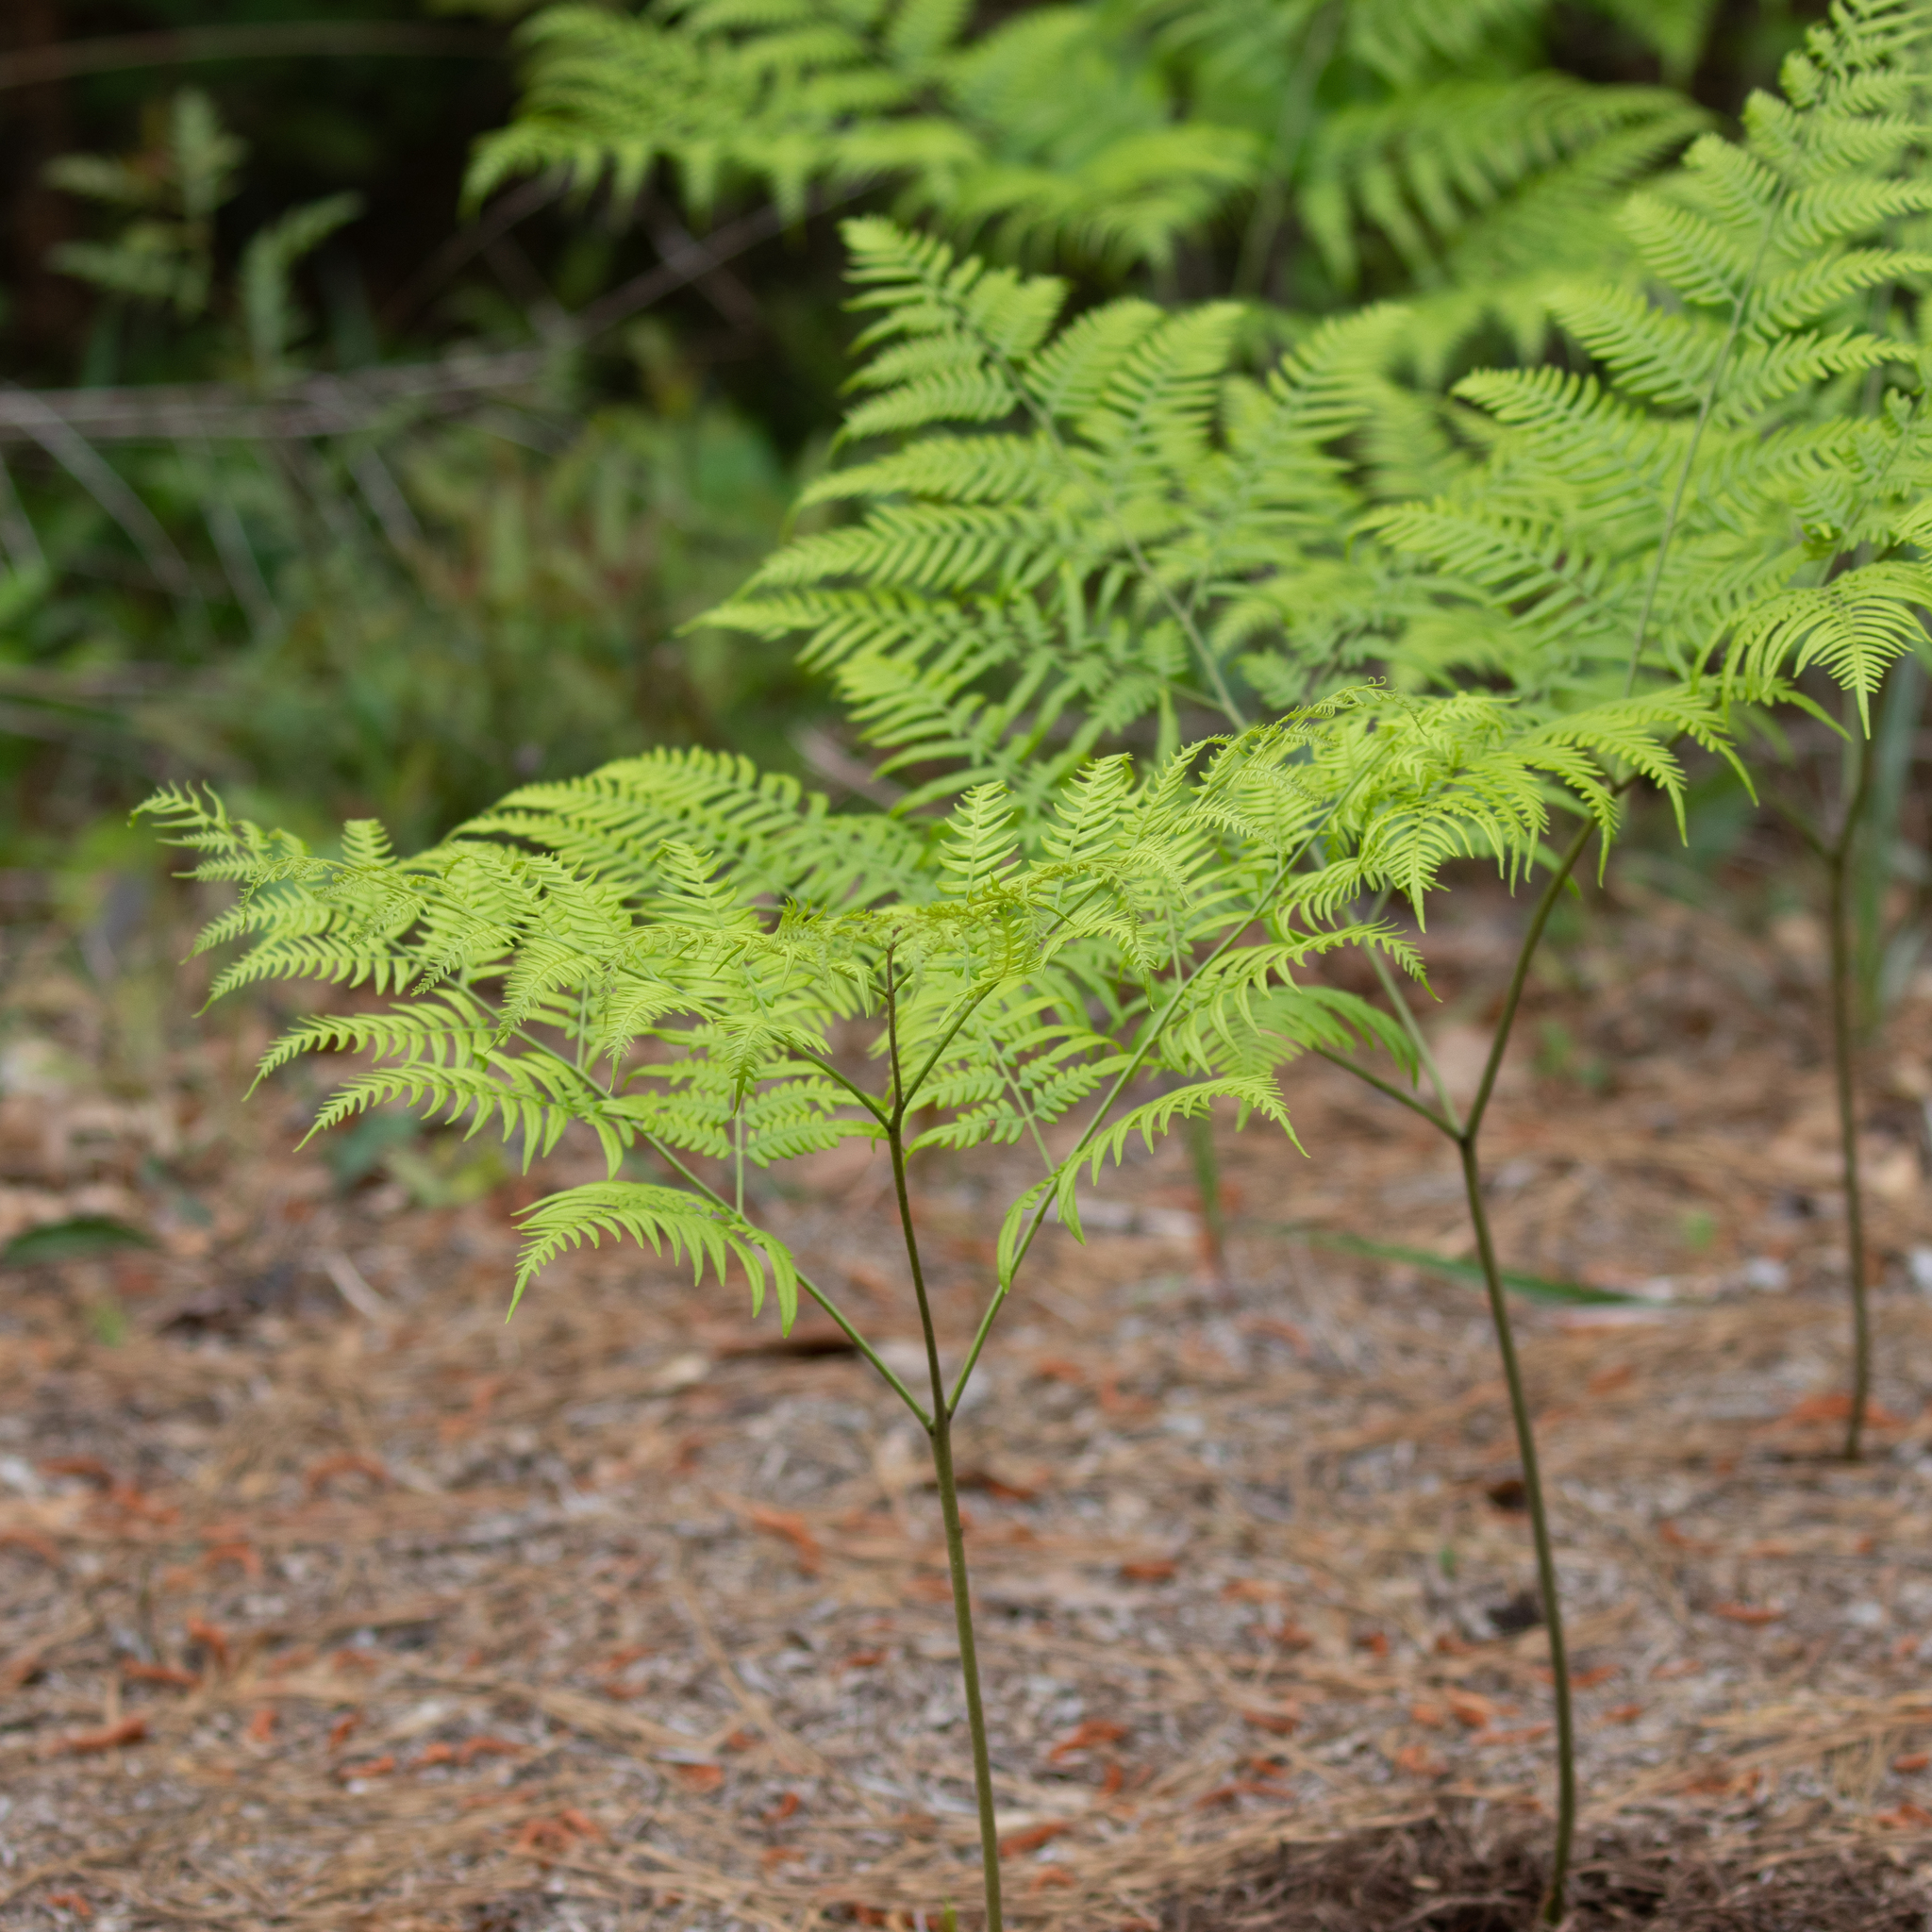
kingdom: Plantae
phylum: Tracheophyta
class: Polypodiopsida
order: Polypodiales
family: Dennstaedtiaceae
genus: Pteridium
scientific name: Pteridium aquilinum
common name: Bracken
